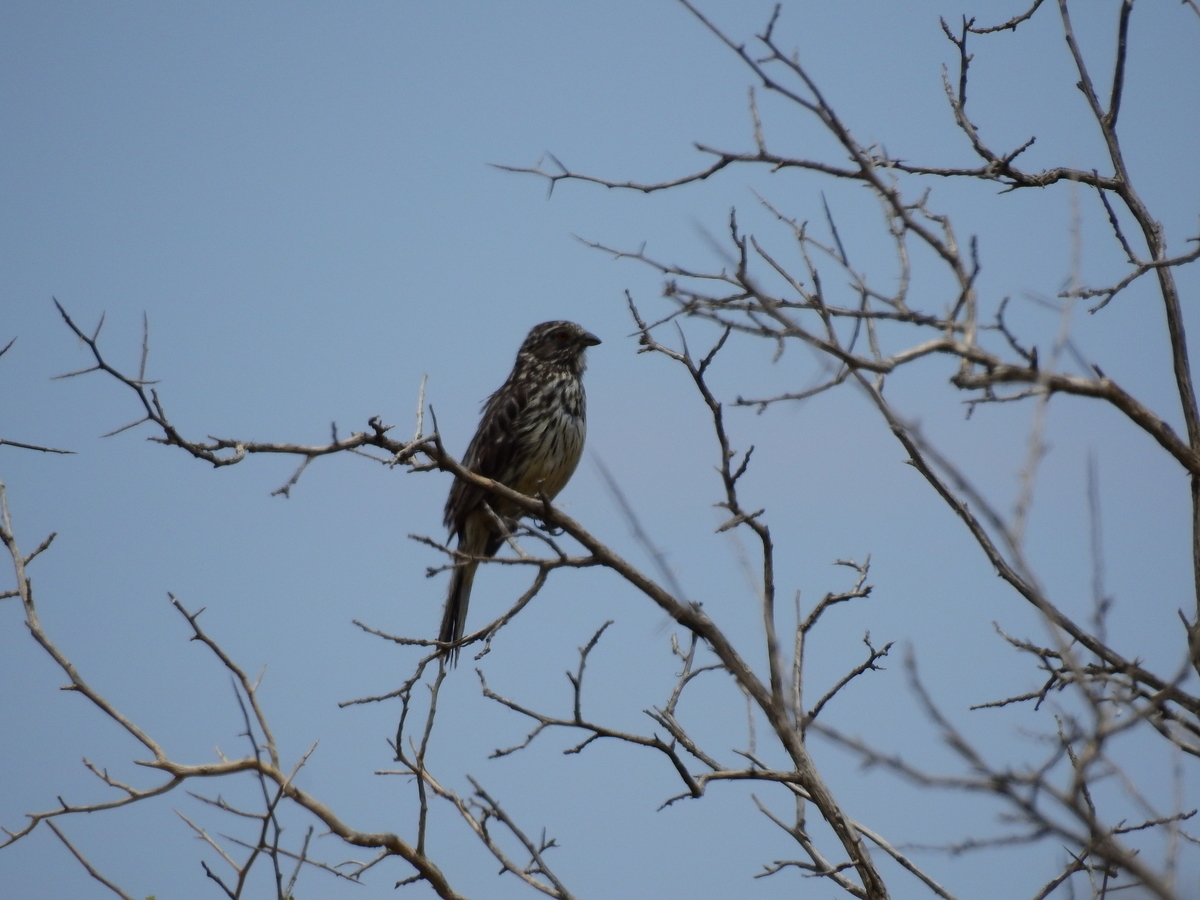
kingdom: Animalia
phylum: Chordata
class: Aves
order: Passeriformes
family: Cotingidae
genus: Phytotoma
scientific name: Phytotoma rutila
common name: White-tipped plantcutter
